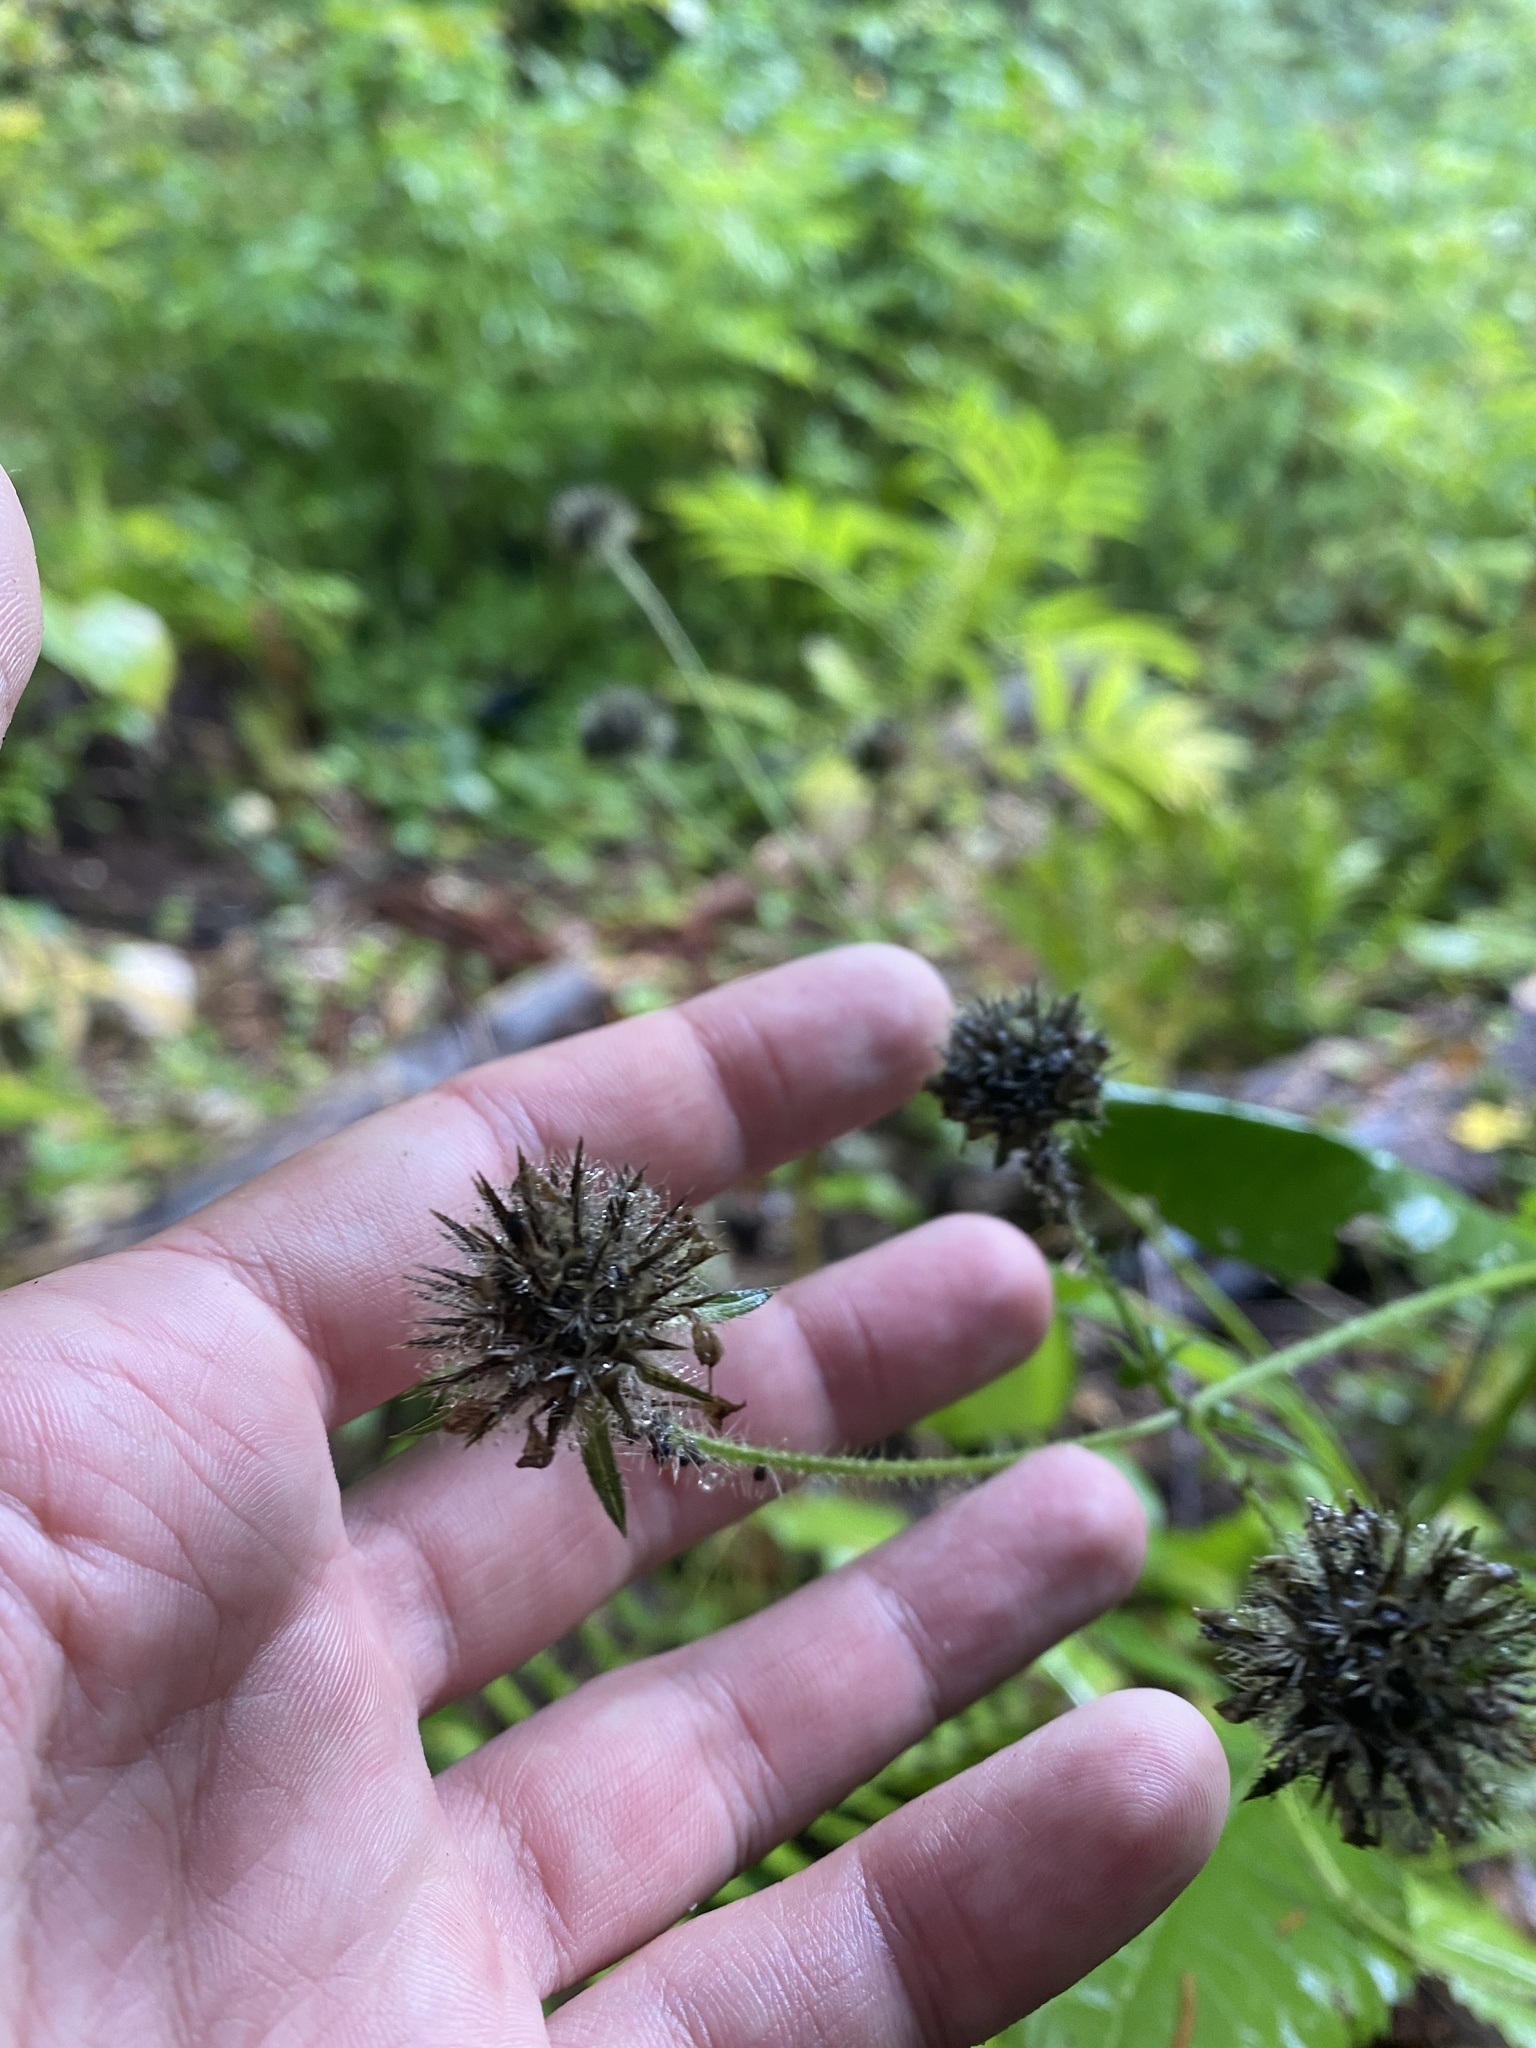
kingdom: Plantae
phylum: Tracheophyta
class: Magnoliopsida
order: Dipsacales
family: Caprifoliaceae
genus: Dipsacus
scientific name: Dipsacus pilosus
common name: Small teasel
